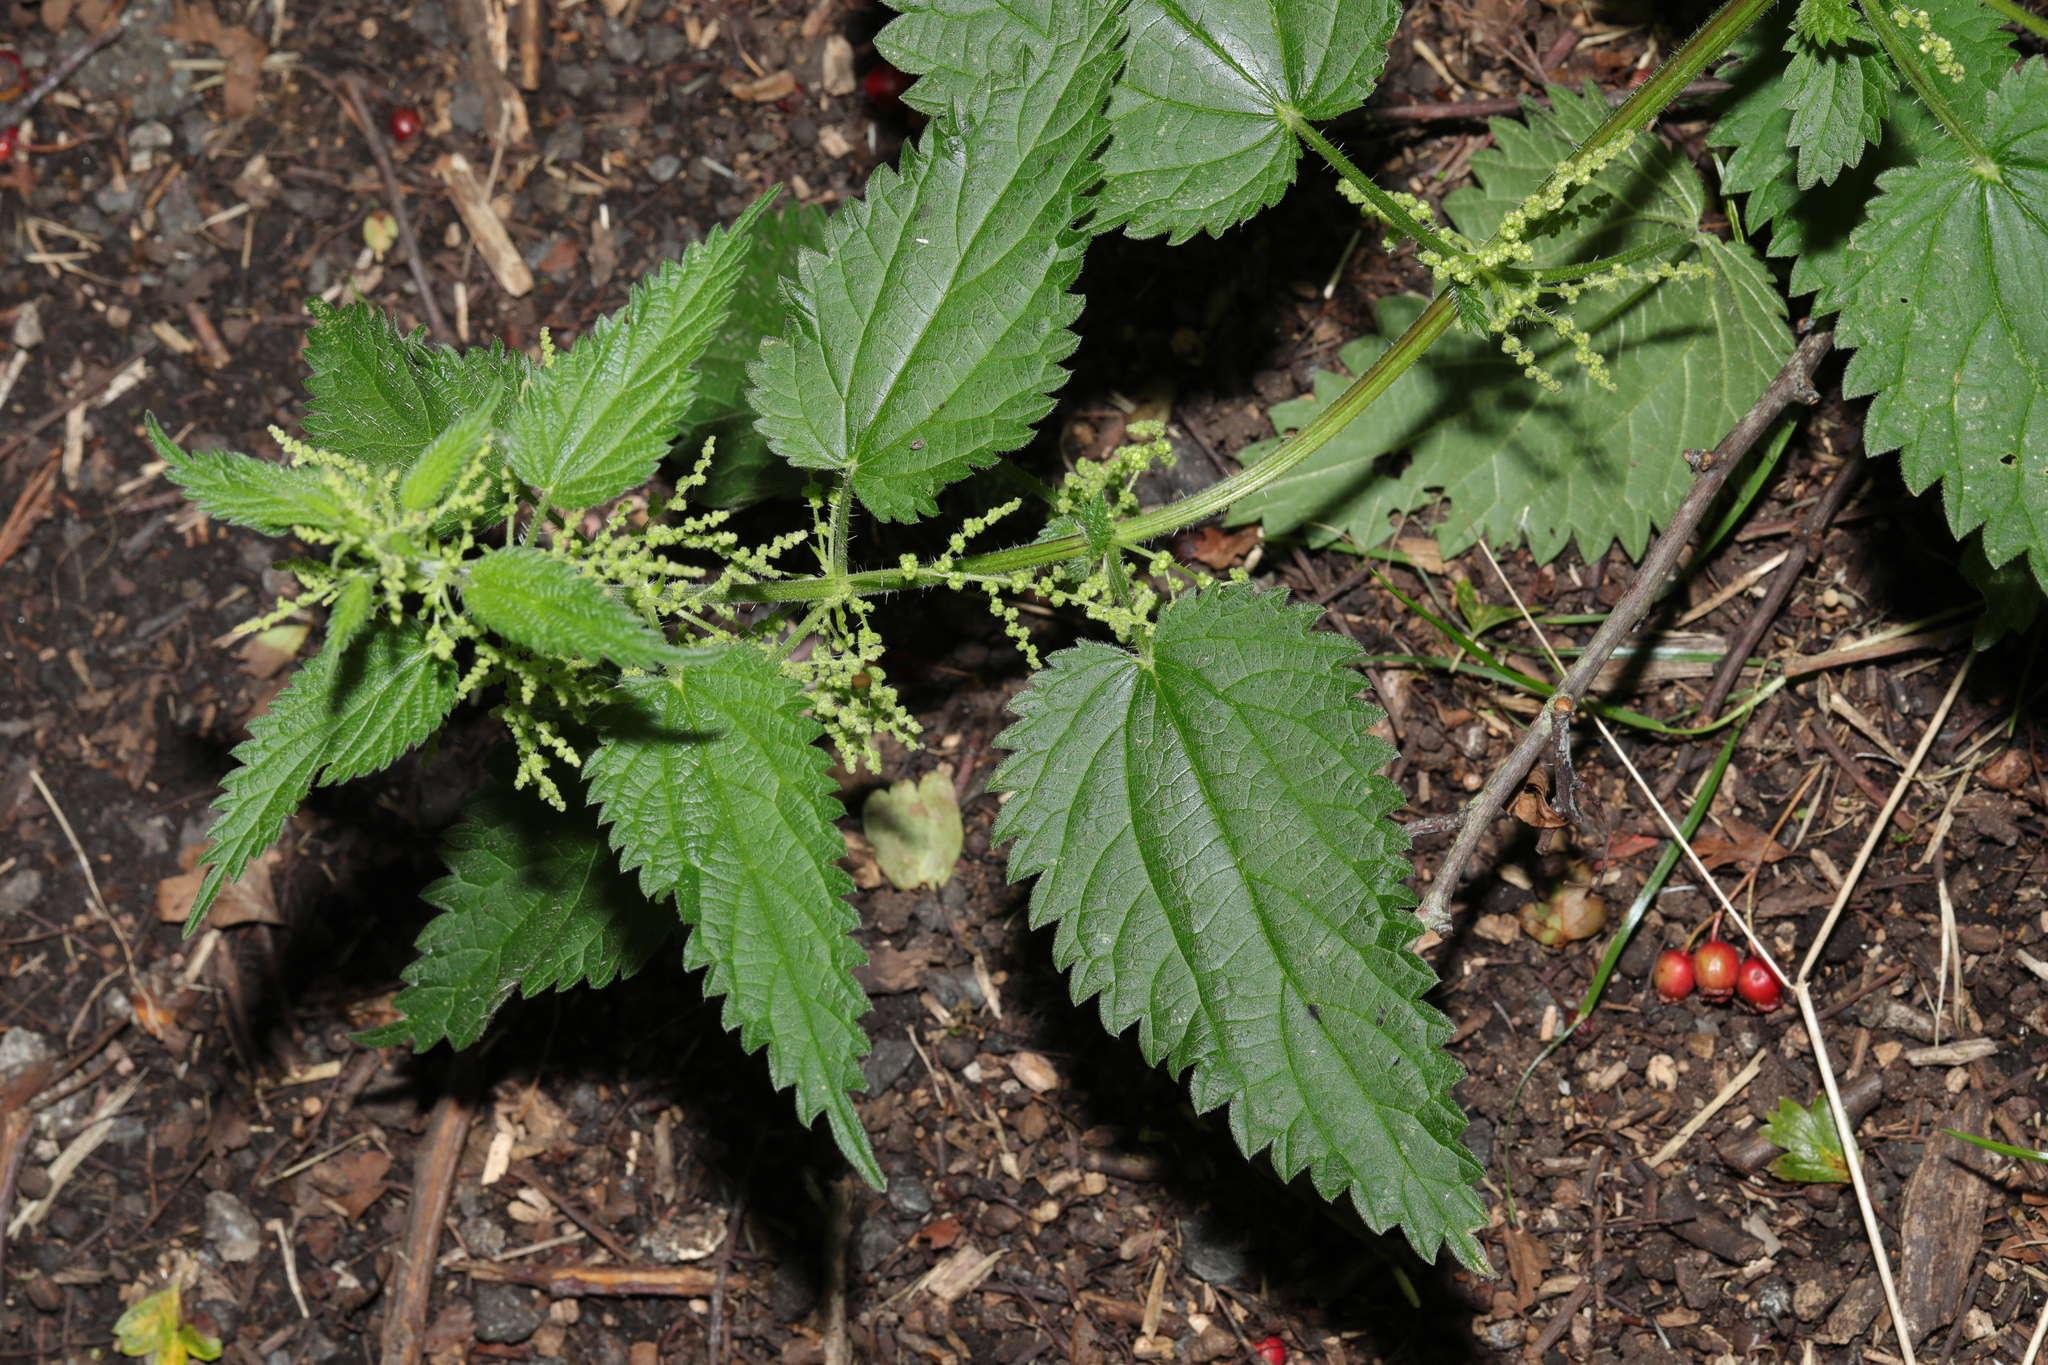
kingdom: Plantae
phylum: Tracheophyta
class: Magnoliopsida
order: Rosales
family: Urticaceae
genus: Urtica
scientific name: Urtica dioica
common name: Common nettle
